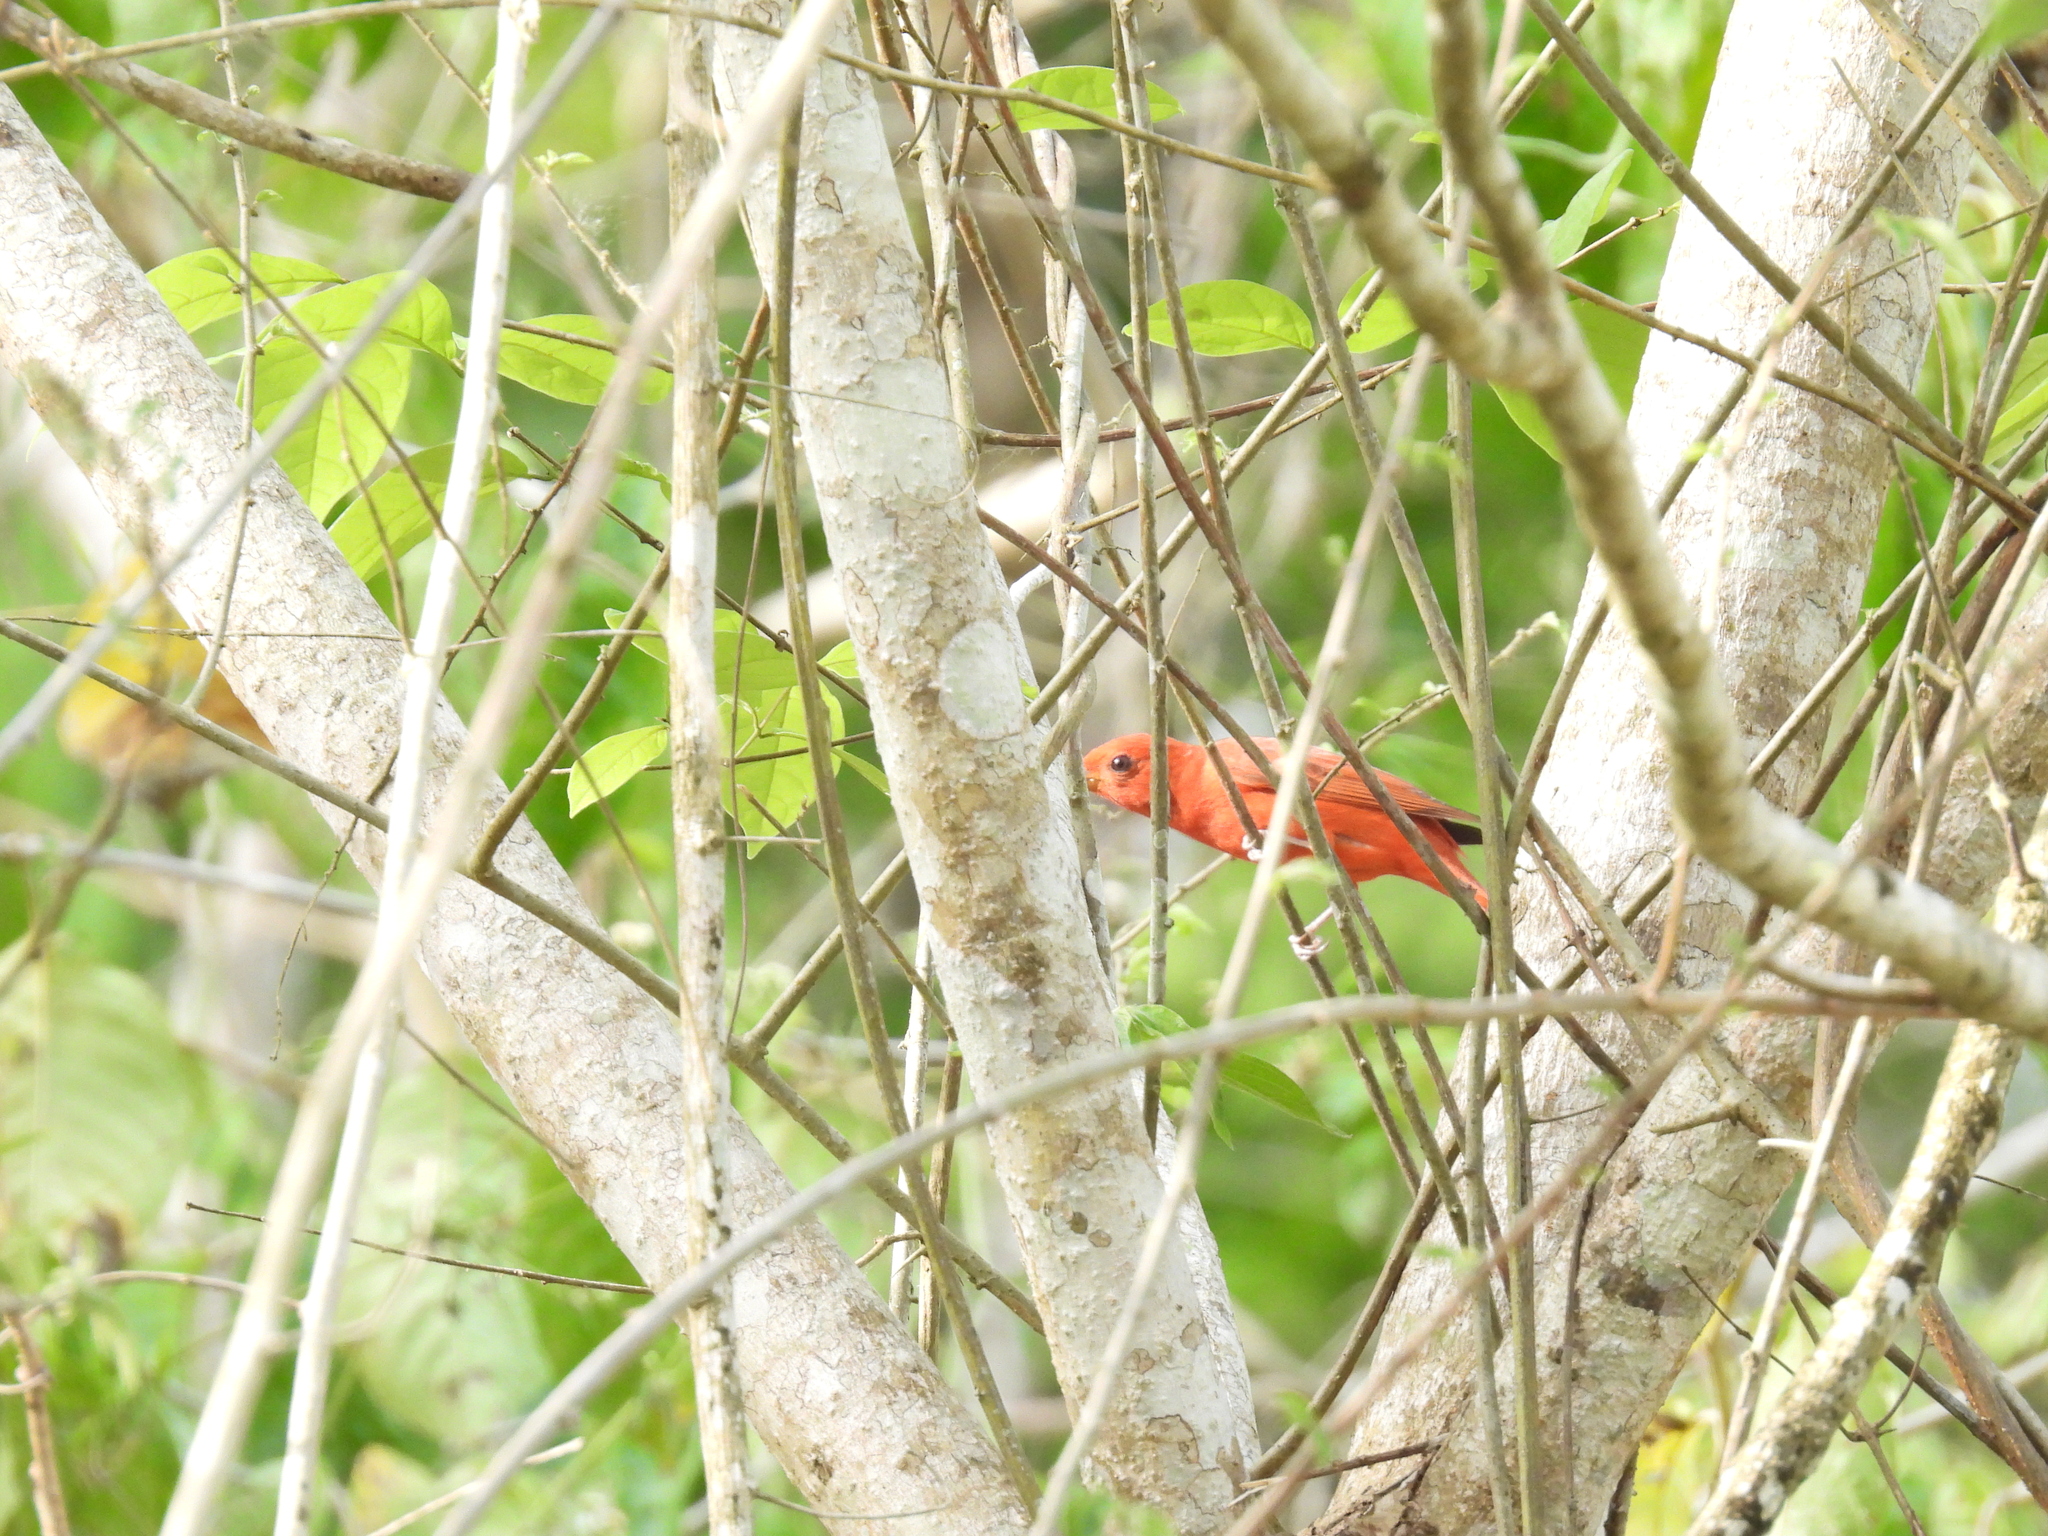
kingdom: Animalia
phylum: Chordata
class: Aves
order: Passeriformes
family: Cardinalidae
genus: Piranga
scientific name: Piranga rubra
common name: Summer tanager
